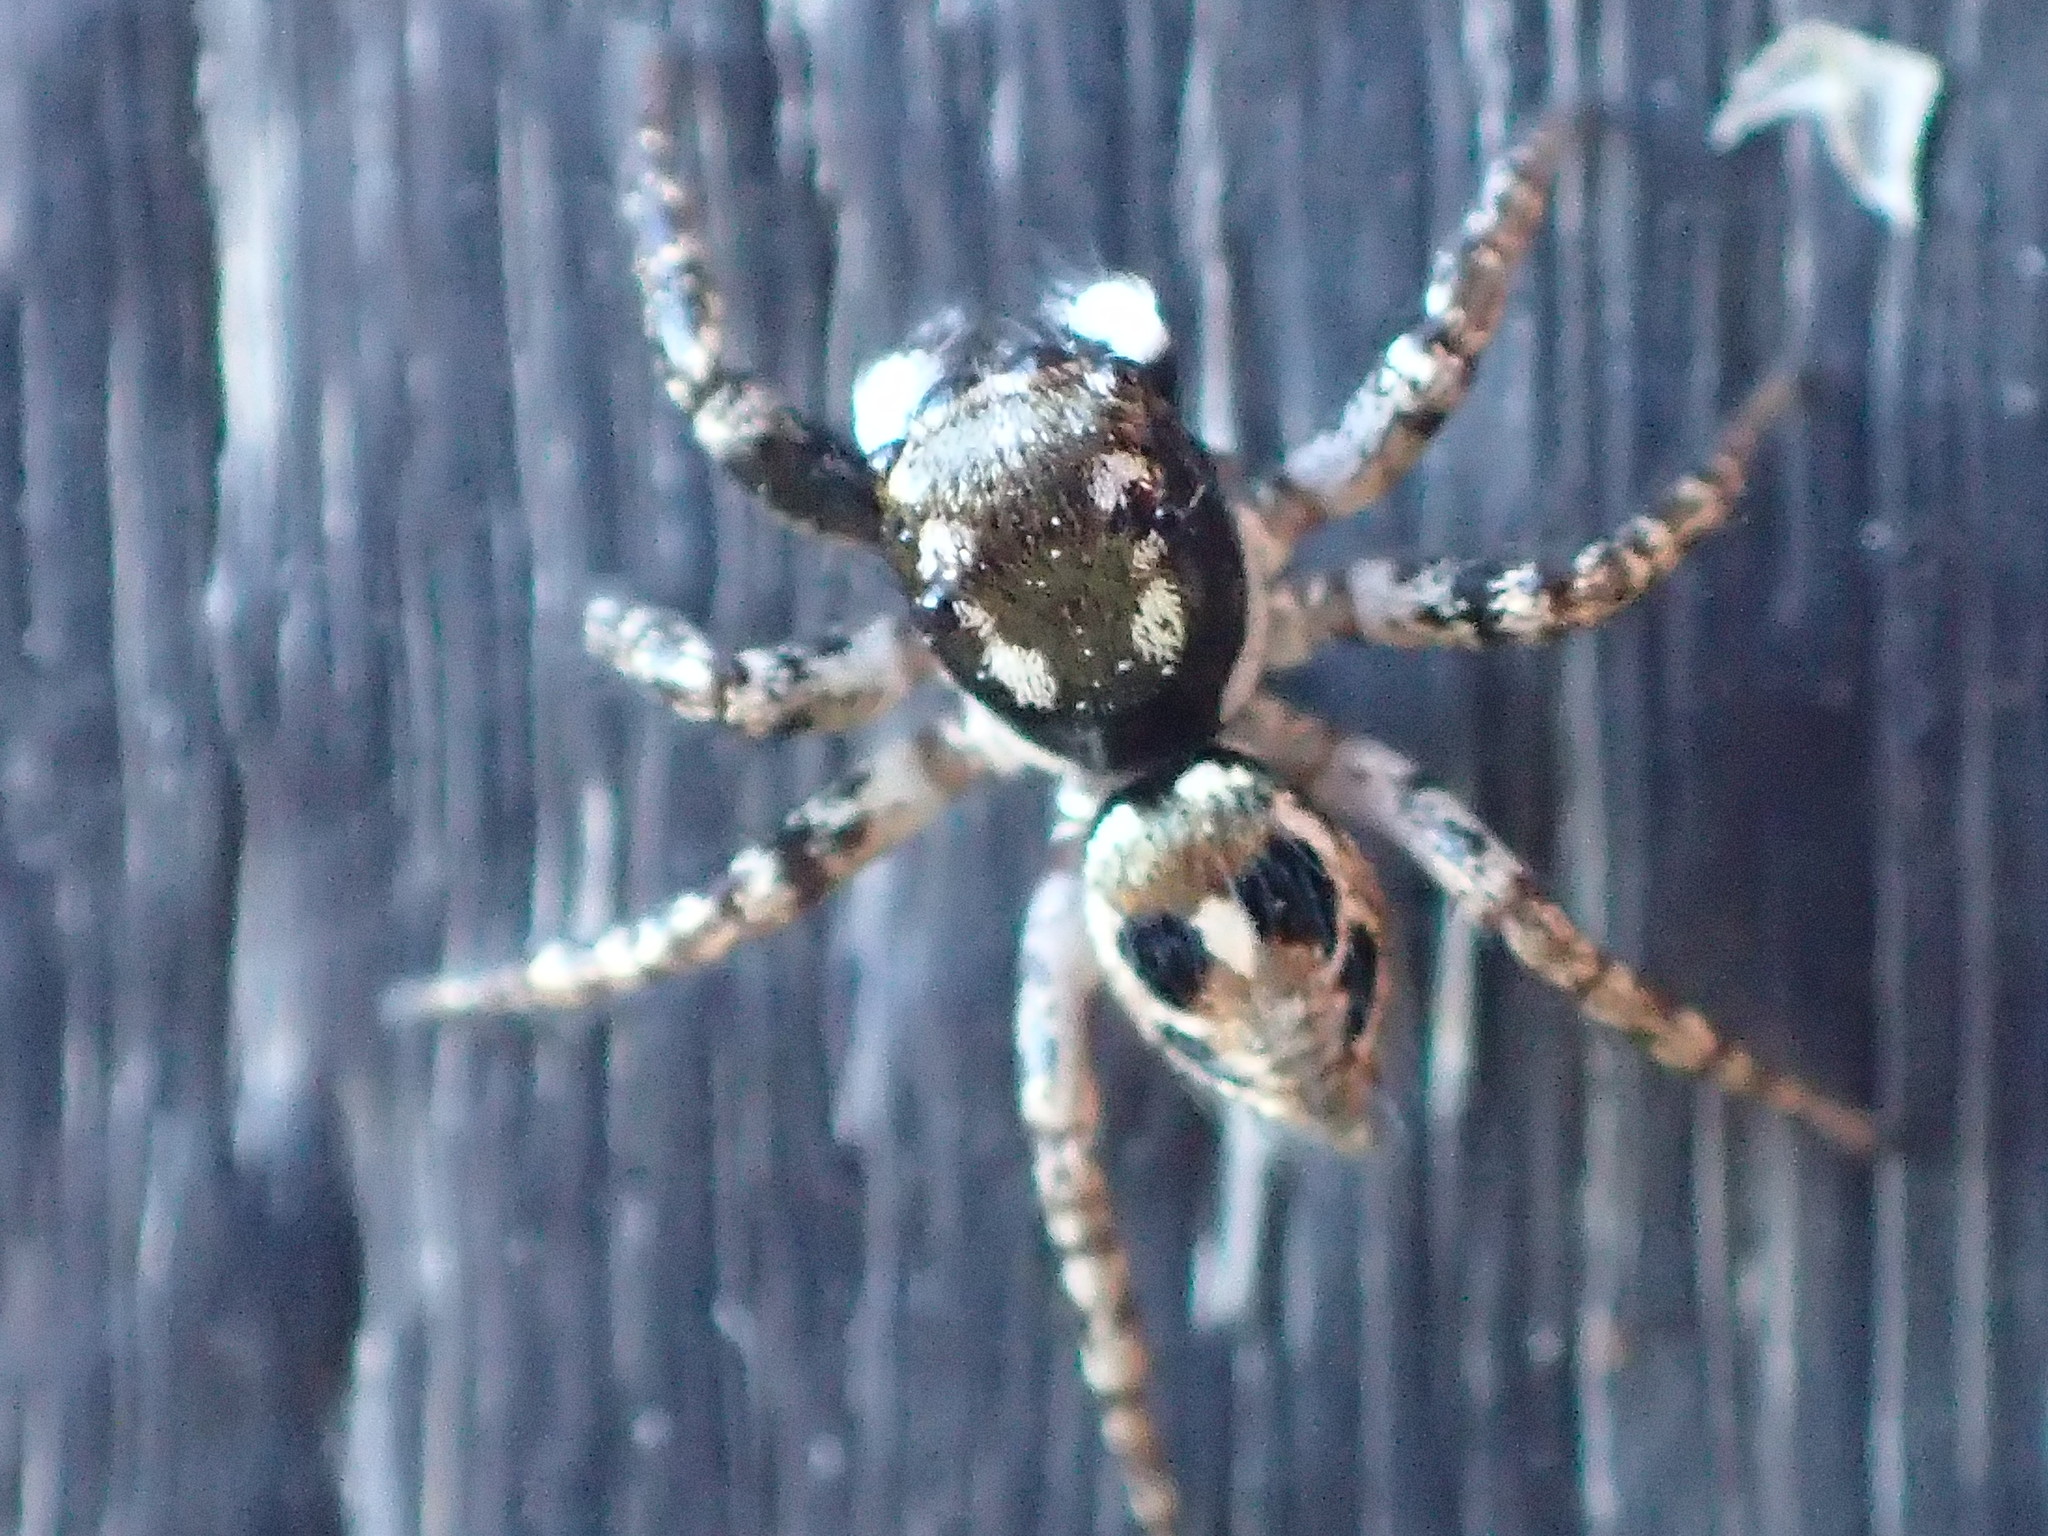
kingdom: Animalia
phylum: Arthropoda
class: Arachnida
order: Araneae
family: Salticidae
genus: Anasaitis
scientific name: Anasaitis canosa
